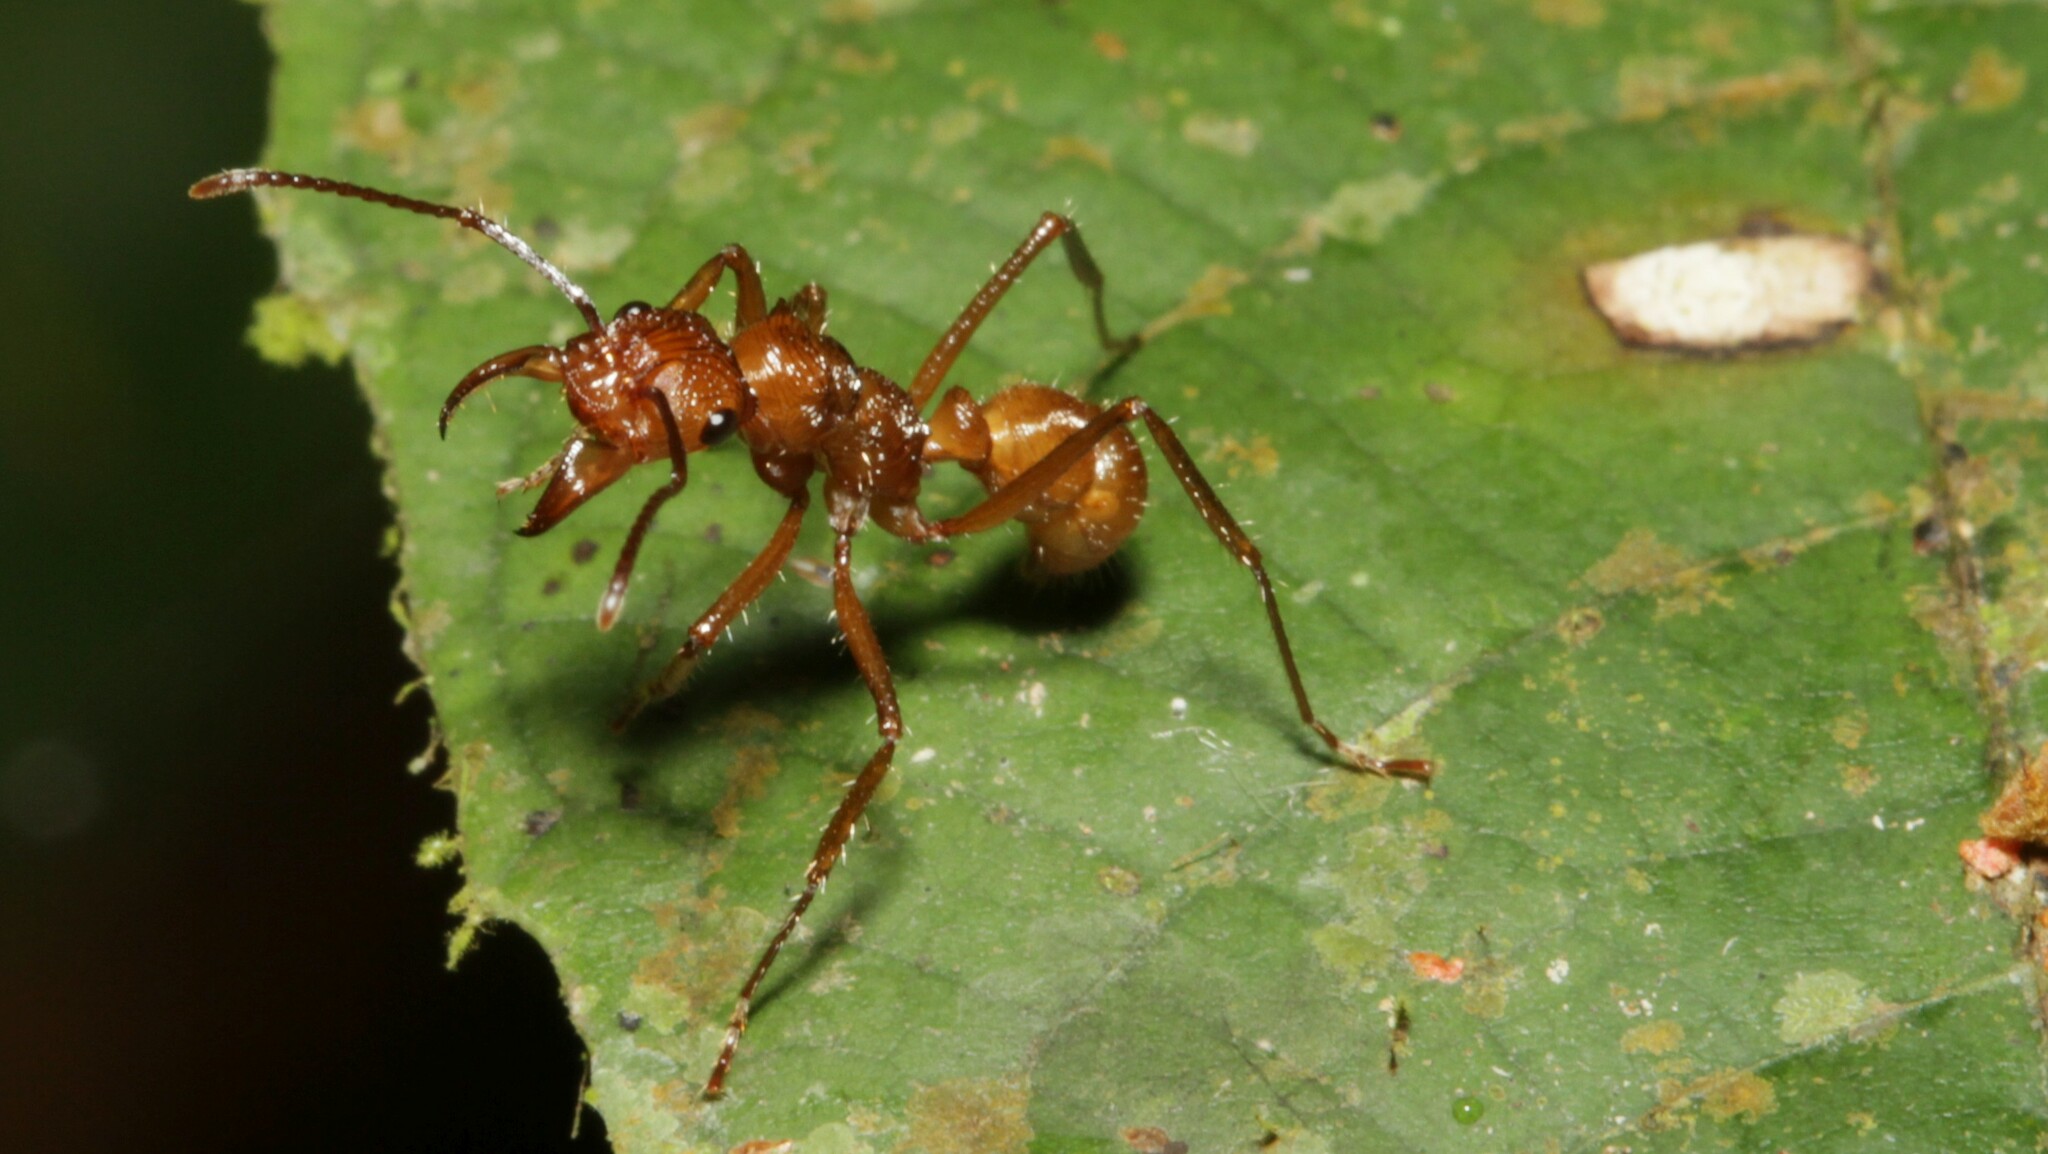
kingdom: Animalia
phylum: Arthropoda
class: Insecta
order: Hymenoptera
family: Formicidae
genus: Ectatomma
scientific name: Ectatomma tuberculatum
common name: Ant
